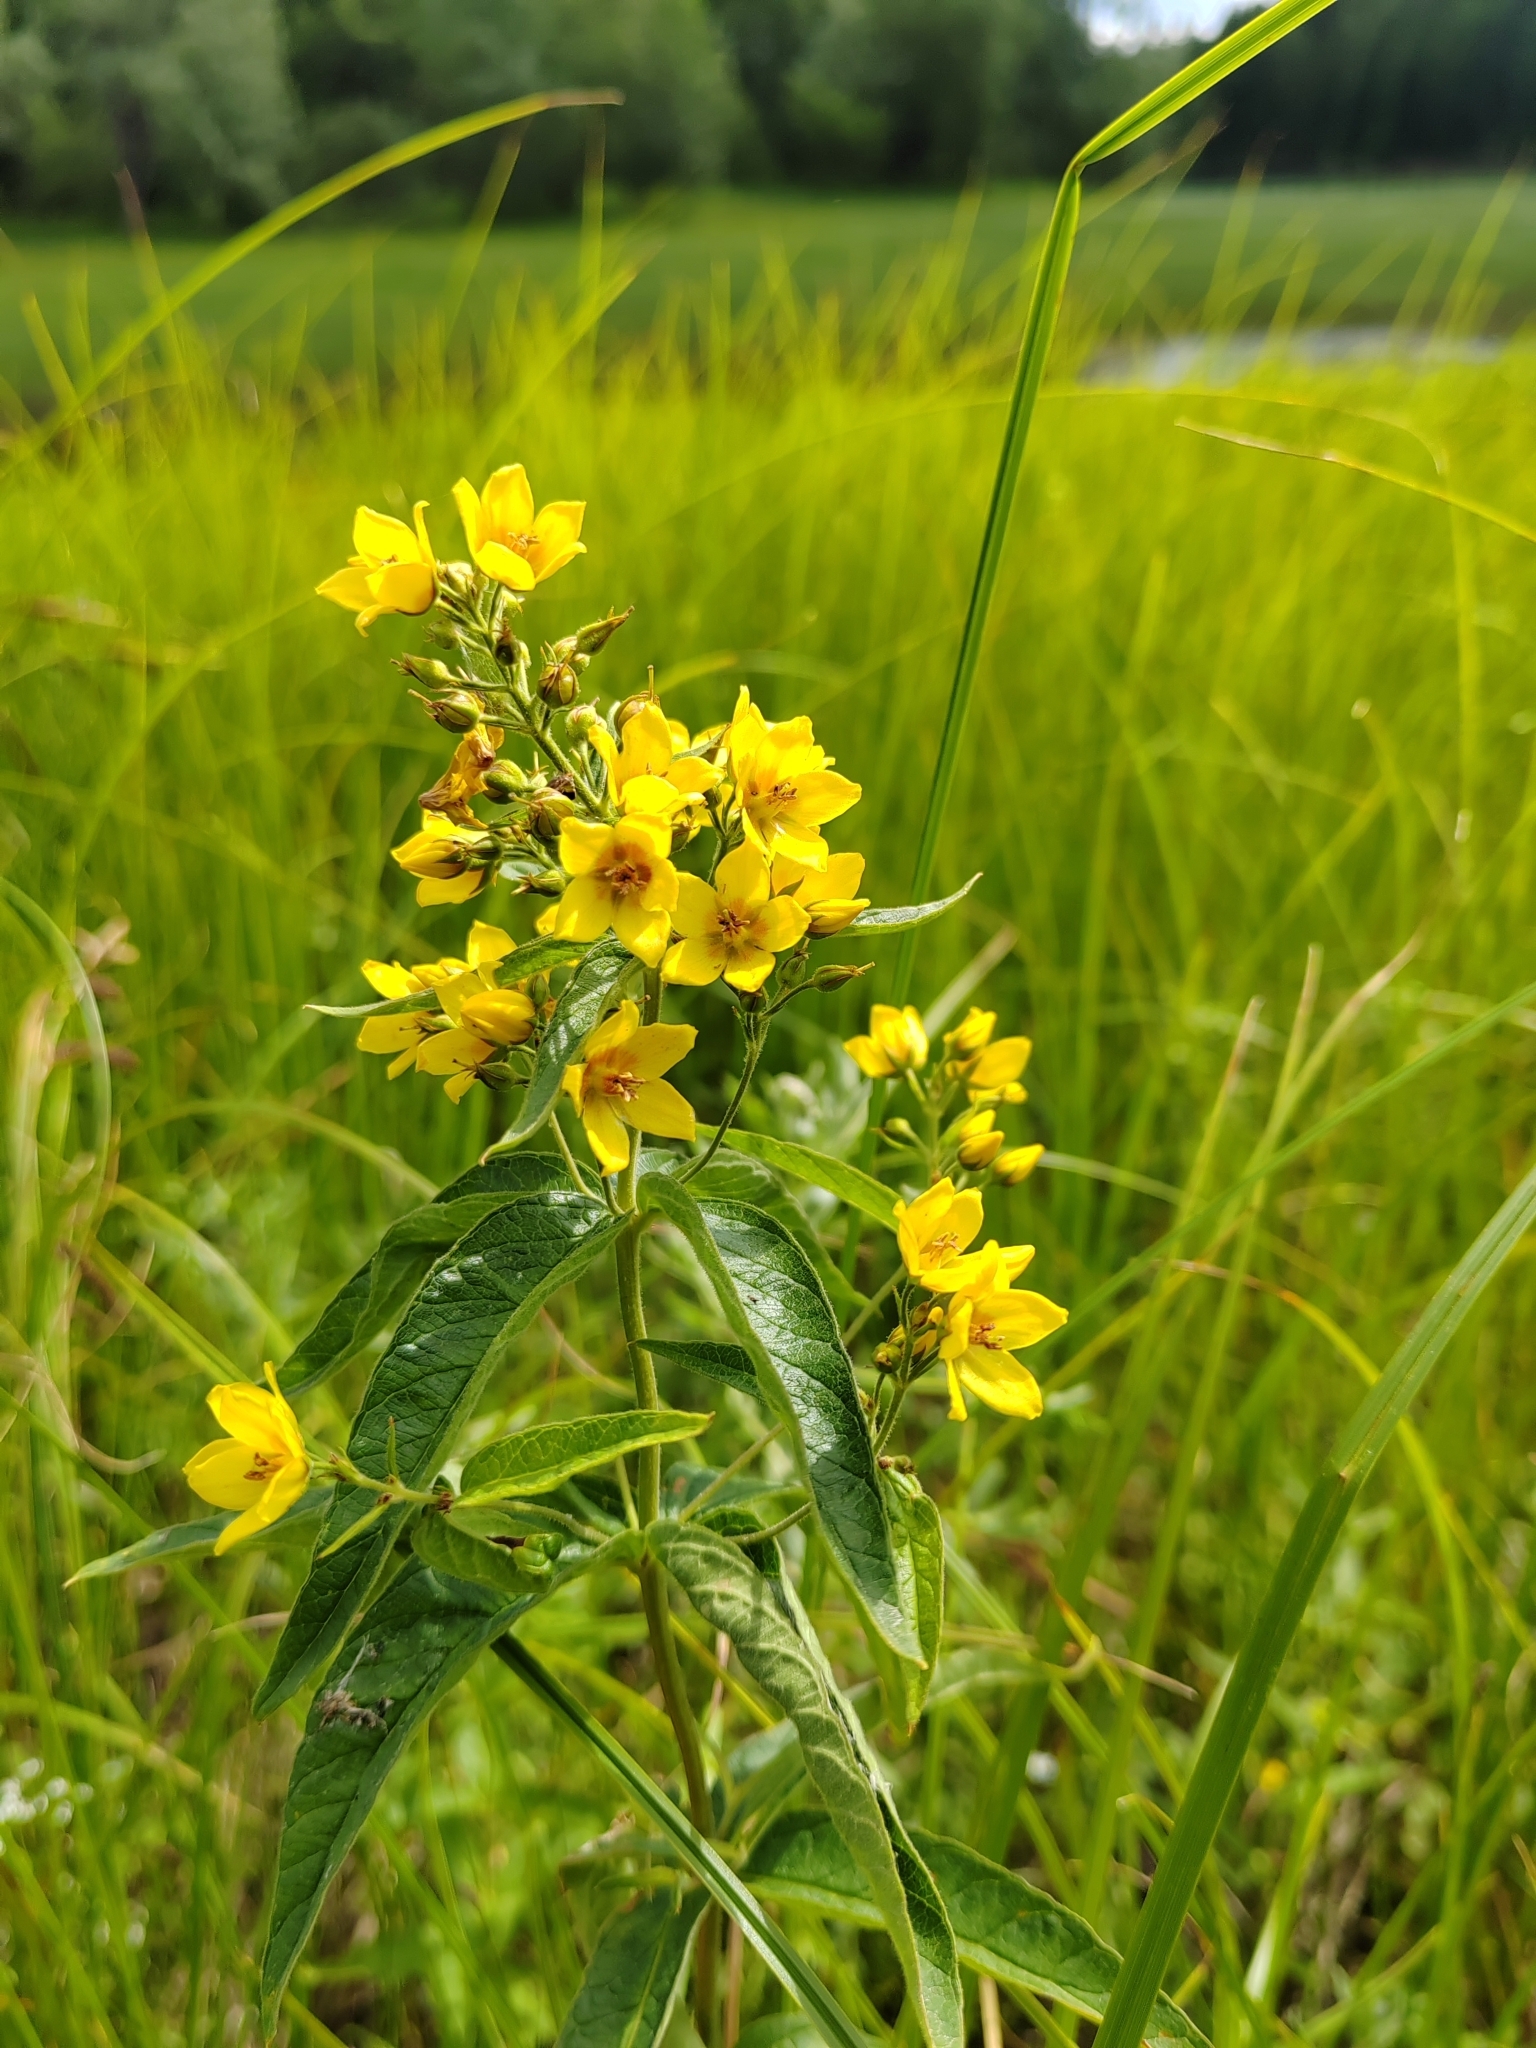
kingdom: Plantae
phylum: Tracheophyta
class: Magnoliopsida
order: Ericales
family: Primulaceae
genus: Lysimachia
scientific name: Lysimachia vulgaris
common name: Yellow loosestrife
